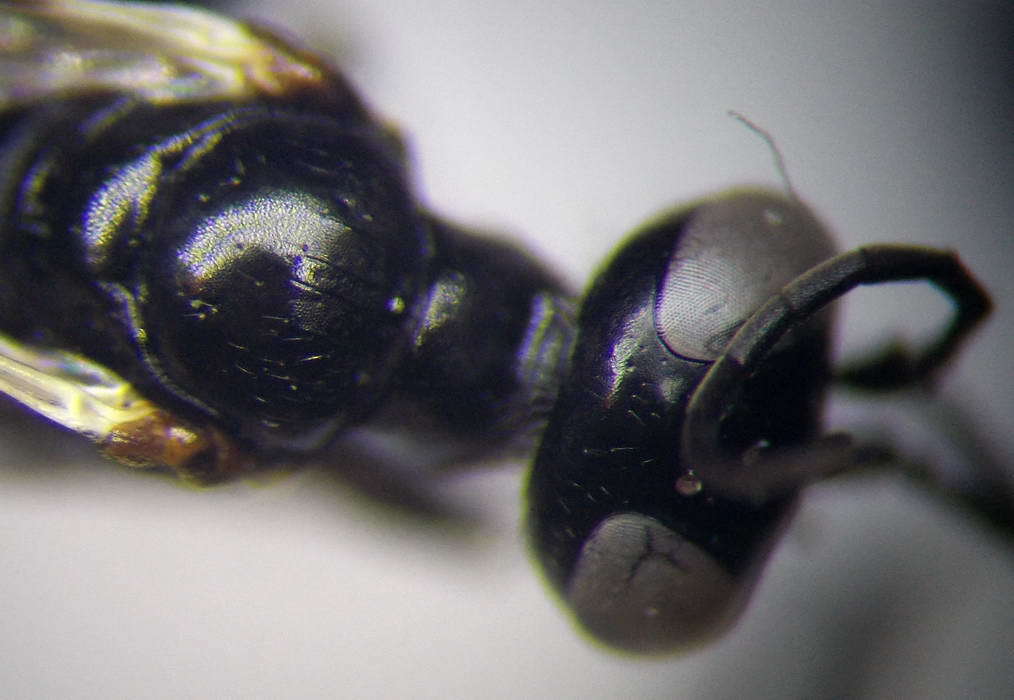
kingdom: Animalia
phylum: Arthropoda
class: Insecta
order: Hymenoptera
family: Crabronidae
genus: Dryudella
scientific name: Dryudella lineata
